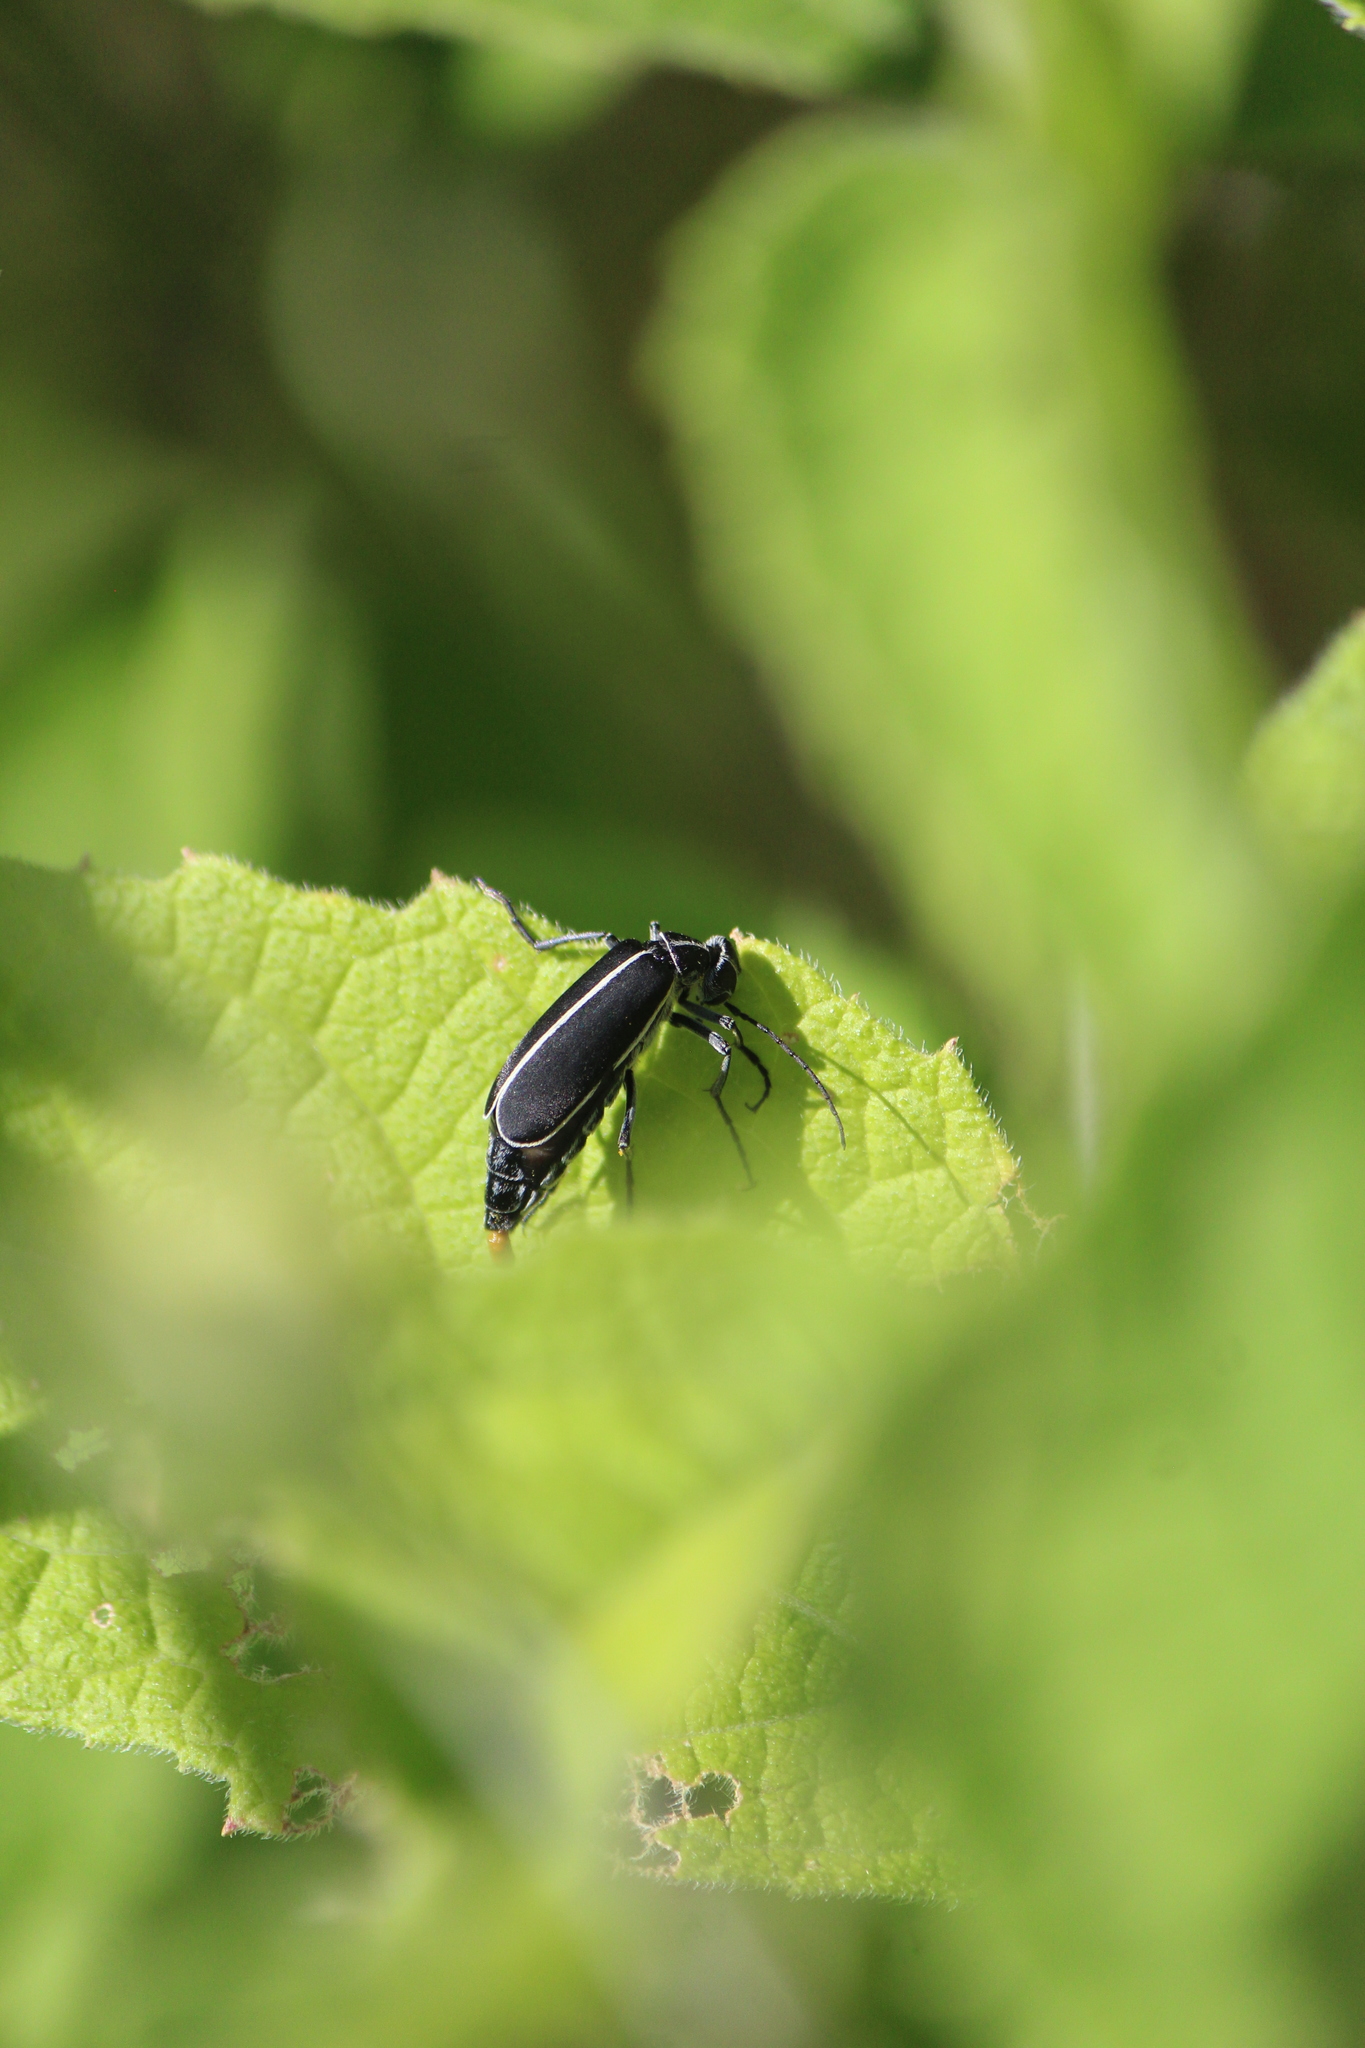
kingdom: Animalia
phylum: Arthropoda
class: Insecta
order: Coleoptera
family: Meloidae
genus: Epicauta
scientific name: Epicauta cinctipennis
